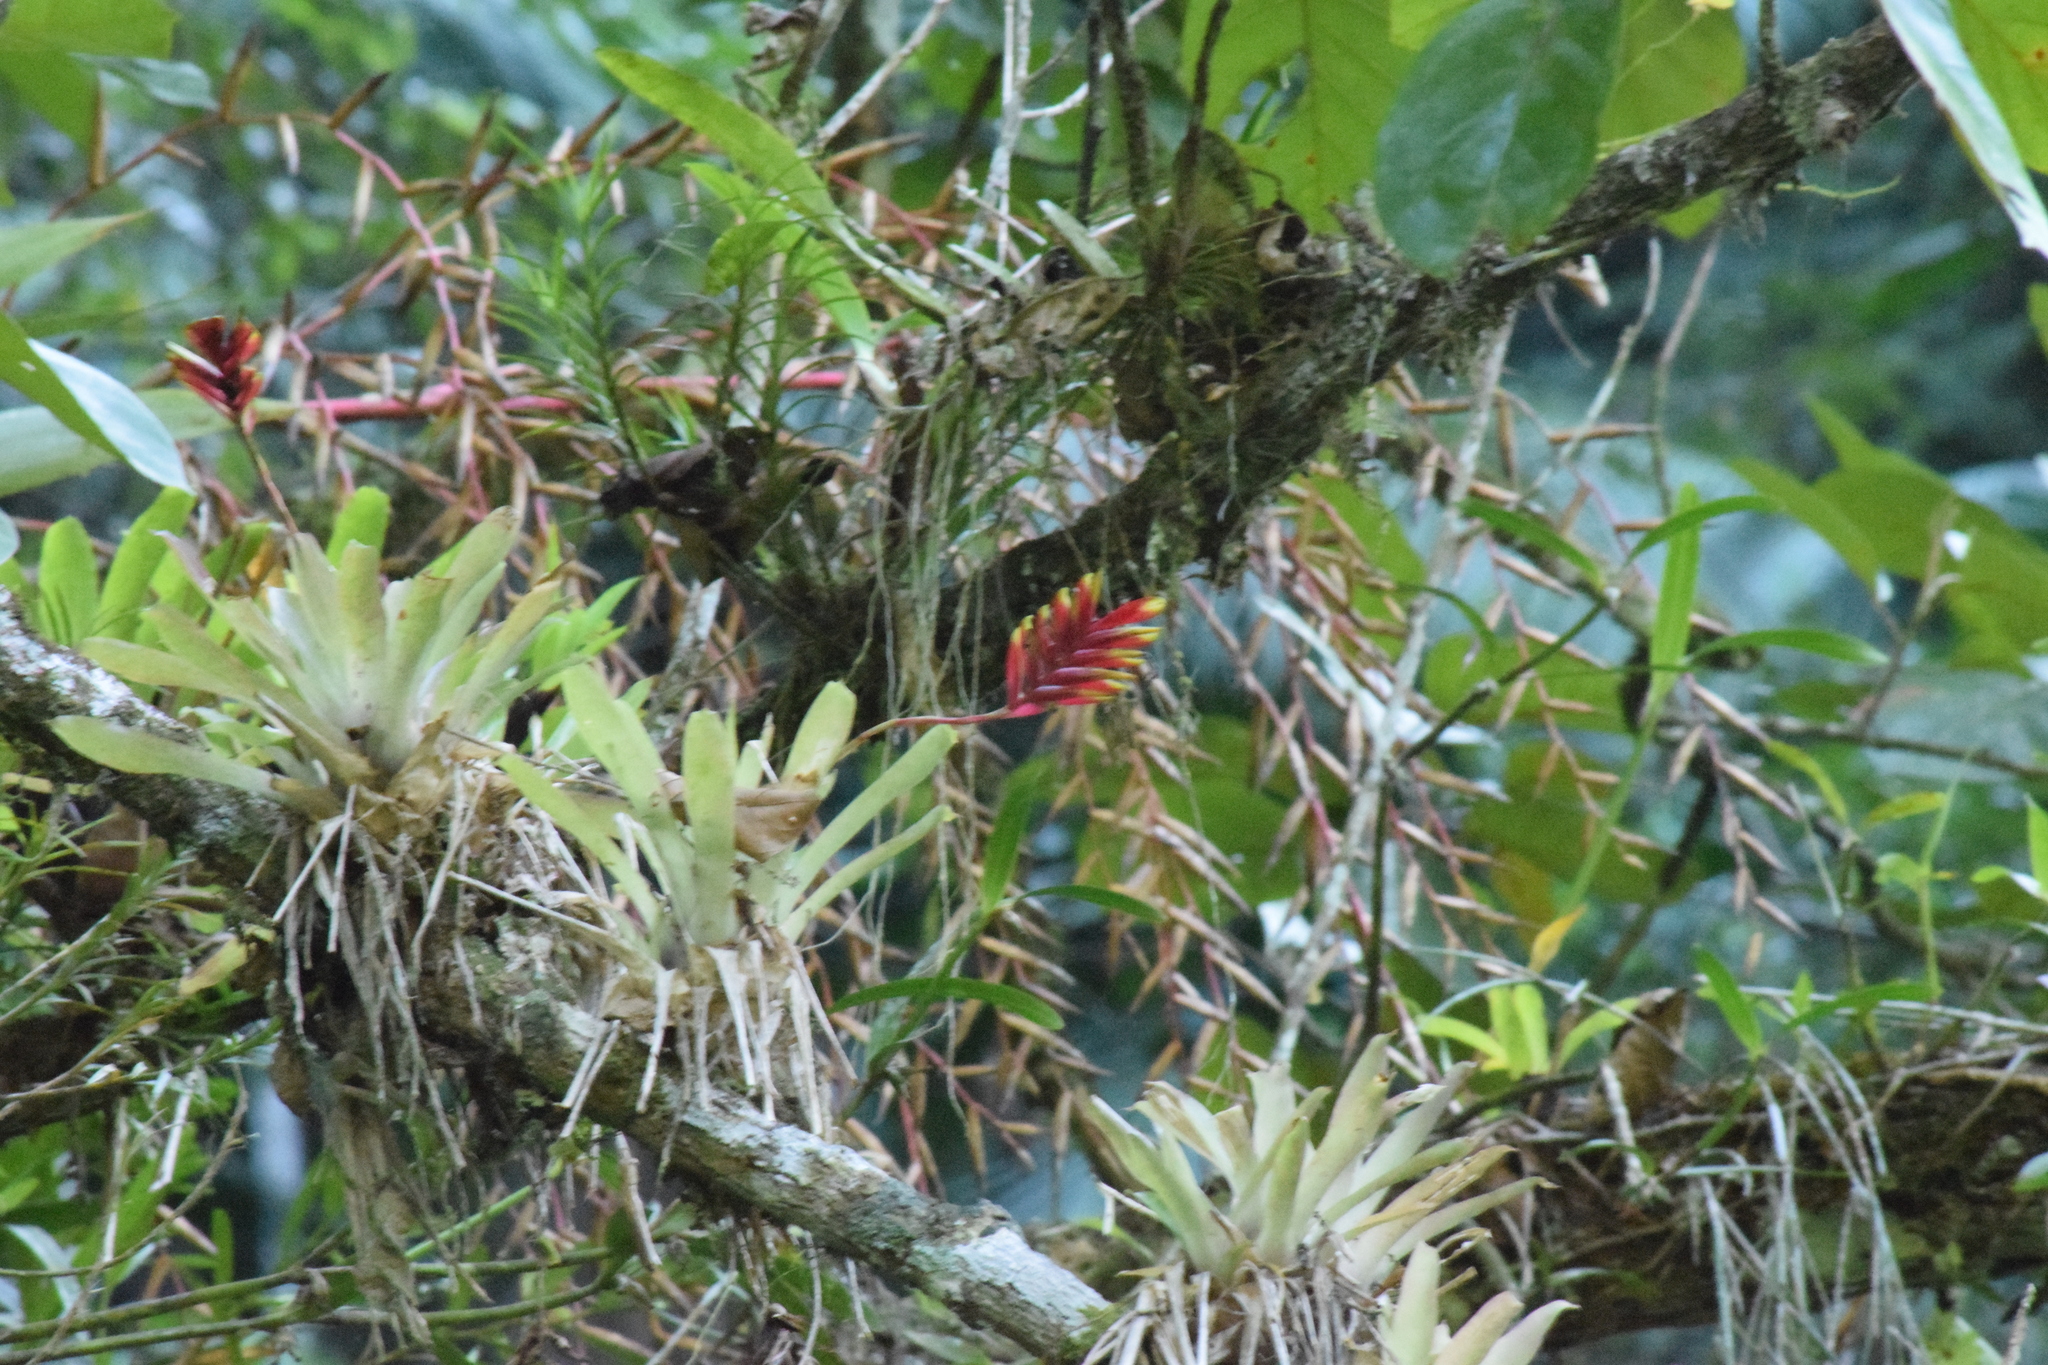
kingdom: Plantae
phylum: Tracheophyta
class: Liliopsida
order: Poales
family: Bromeliaceae
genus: Vriesea
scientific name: Vriesea carinata
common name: Lobster-claws
